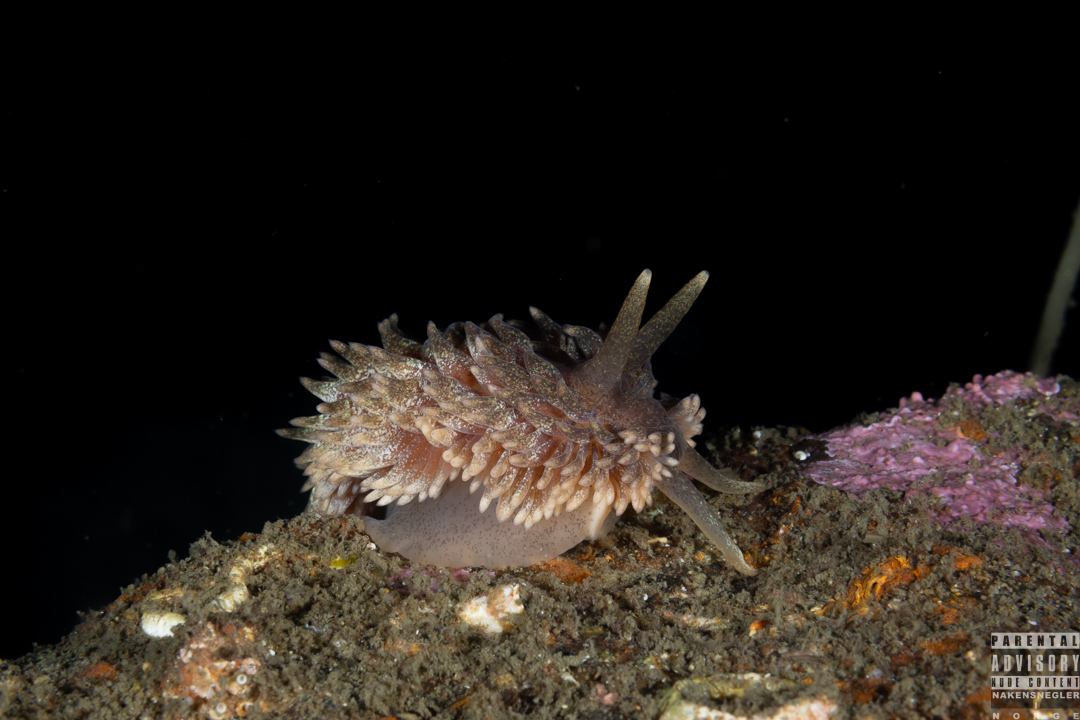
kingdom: Animalia
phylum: Mollusca
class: Gastropoda
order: Nudibranchia
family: Aeolidiidae
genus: Aeolidia
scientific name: Aeolidia papillosa
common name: Common grey sea slug
